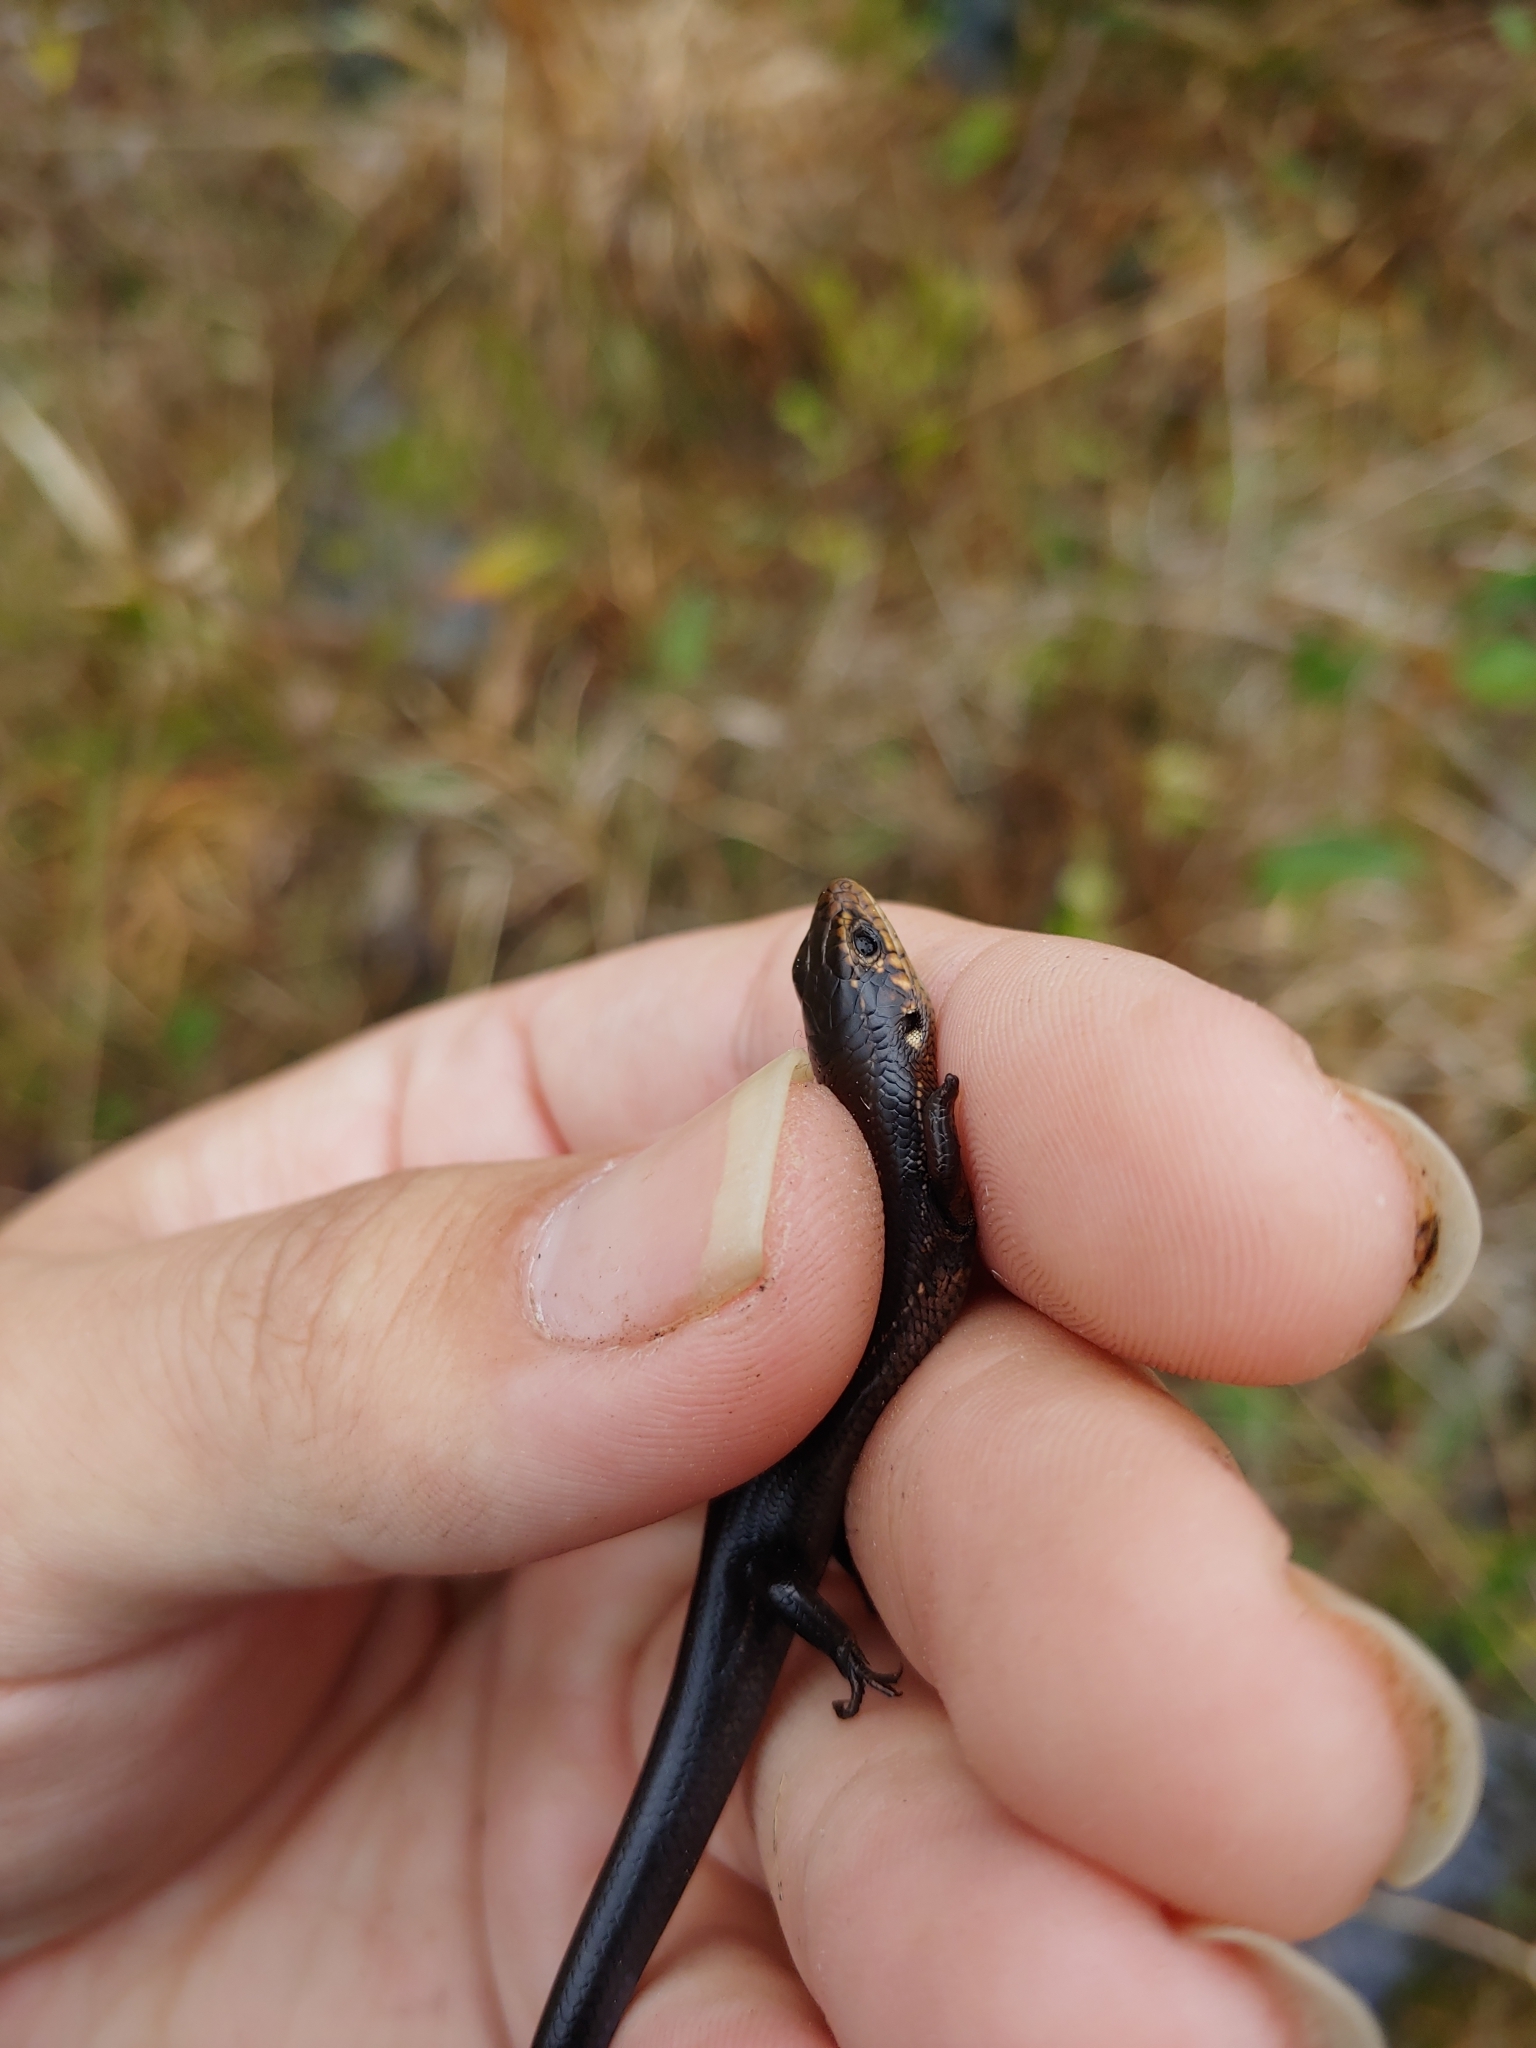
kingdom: Animalia
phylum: Chordata
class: Squamata
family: Scincidae
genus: Plestiodon
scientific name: Plestiodon anthracinus
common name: Coal skink
